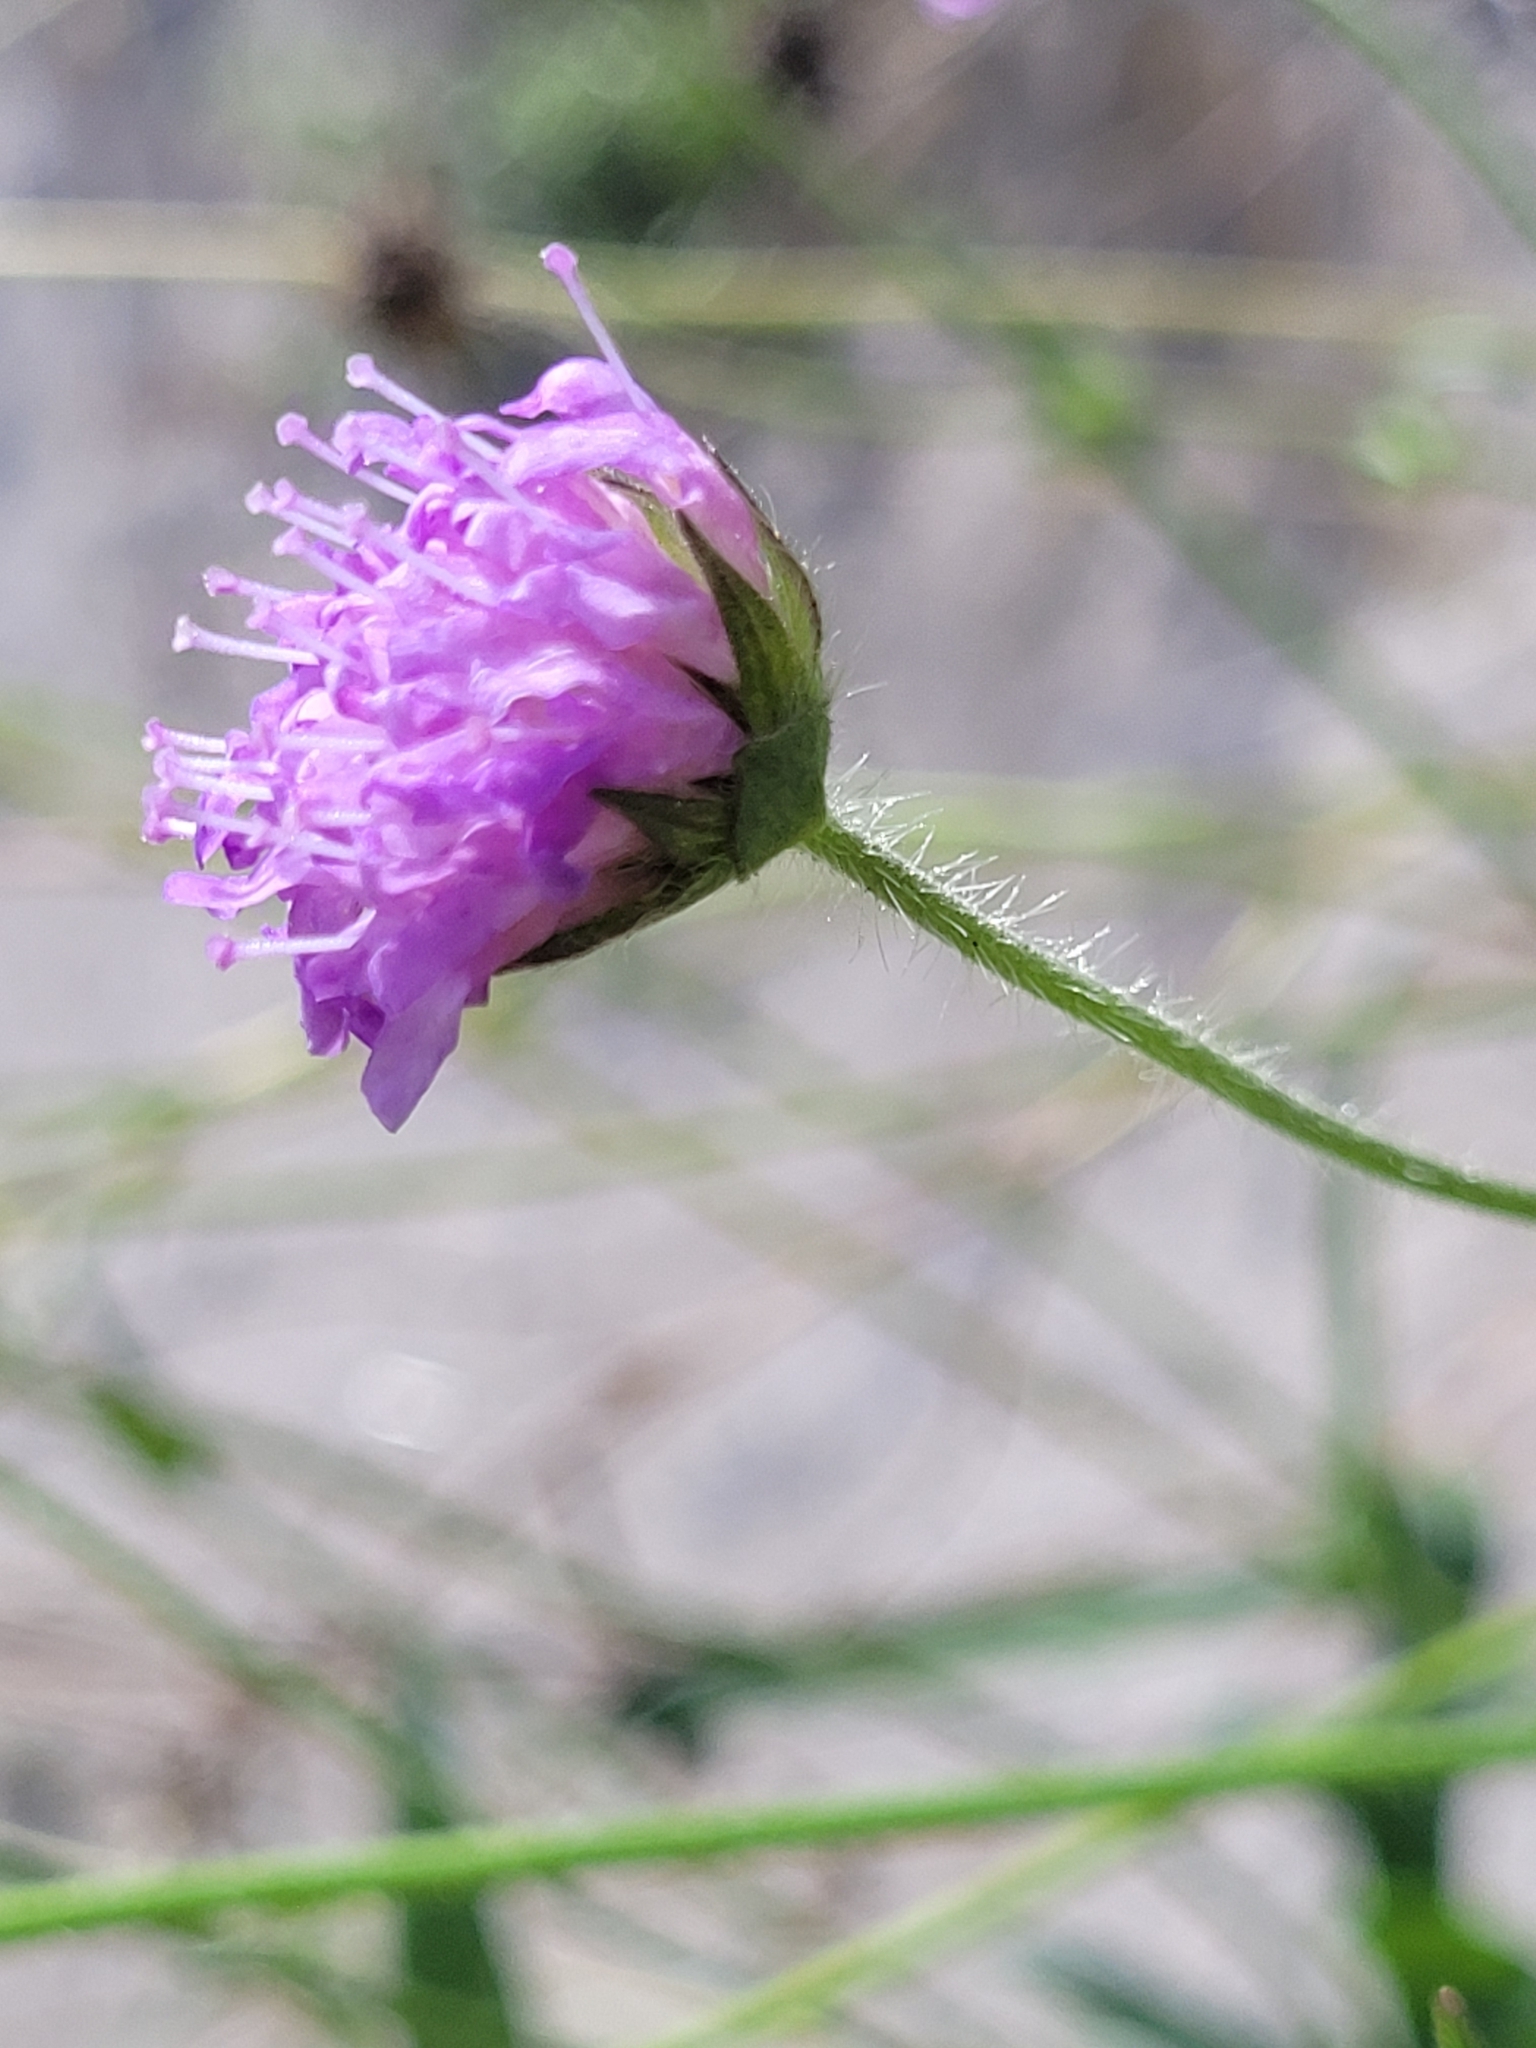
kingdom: Plantae
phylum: Tracheophyta
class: Magnoliopsida
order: Dipsacales
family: Caprifoliaceae
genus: Knautia
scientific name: Knautia arvensis
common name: Field scabiosa
